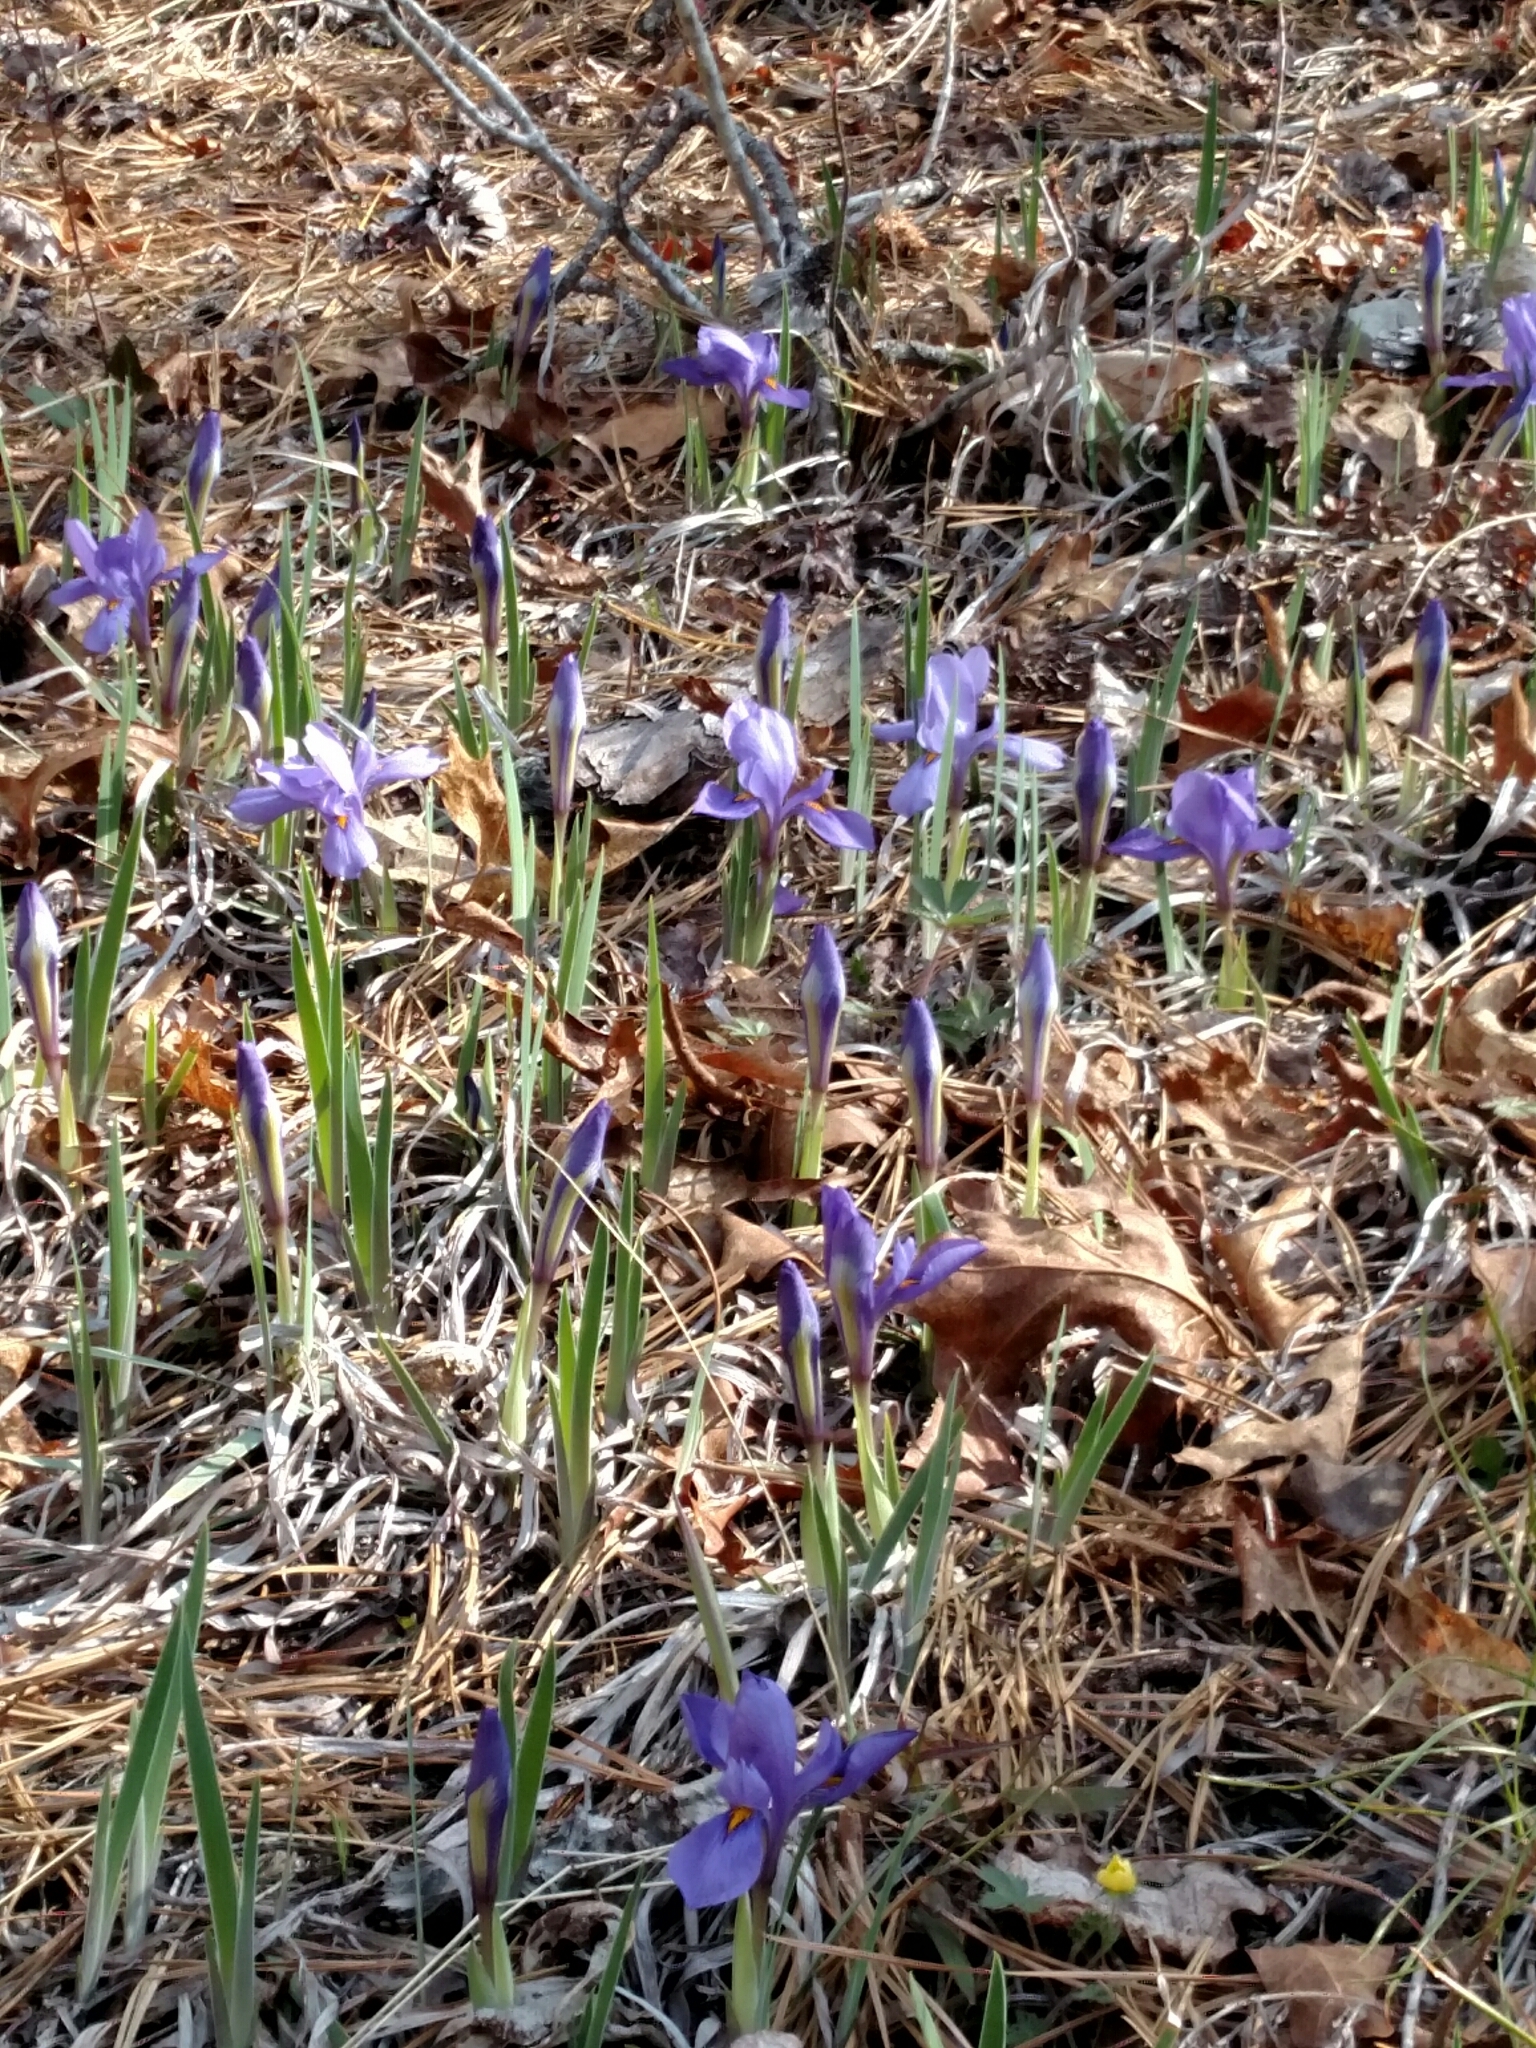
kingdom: Plantae
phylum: Tracheophyta
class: Liliopsida
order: Asparagales
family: Iridaceae
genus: Iris
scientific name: Iris verna
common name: Dwarf iris
